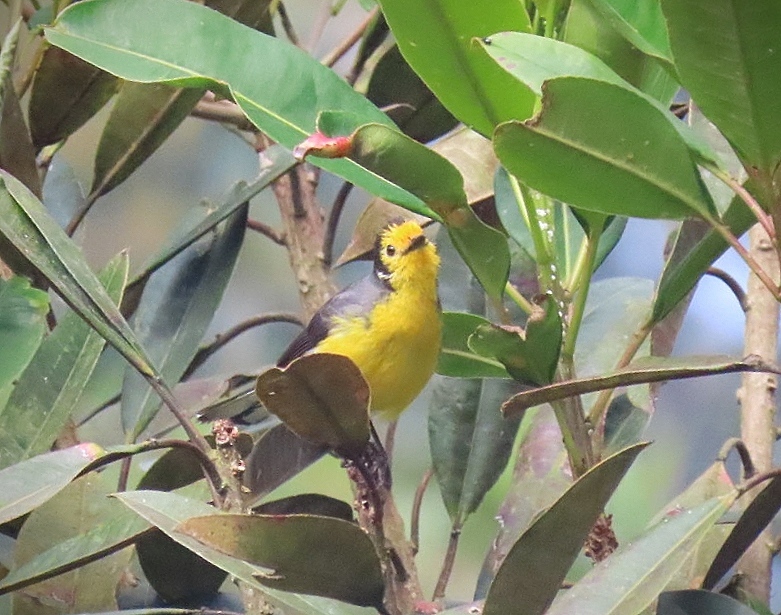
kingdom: Animalia
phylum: Chordata
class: Aves
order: Passeriformes
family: Parulidae
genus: Myioborus
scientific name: Myioborus ornatus
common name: Golden-fronted whitestart
